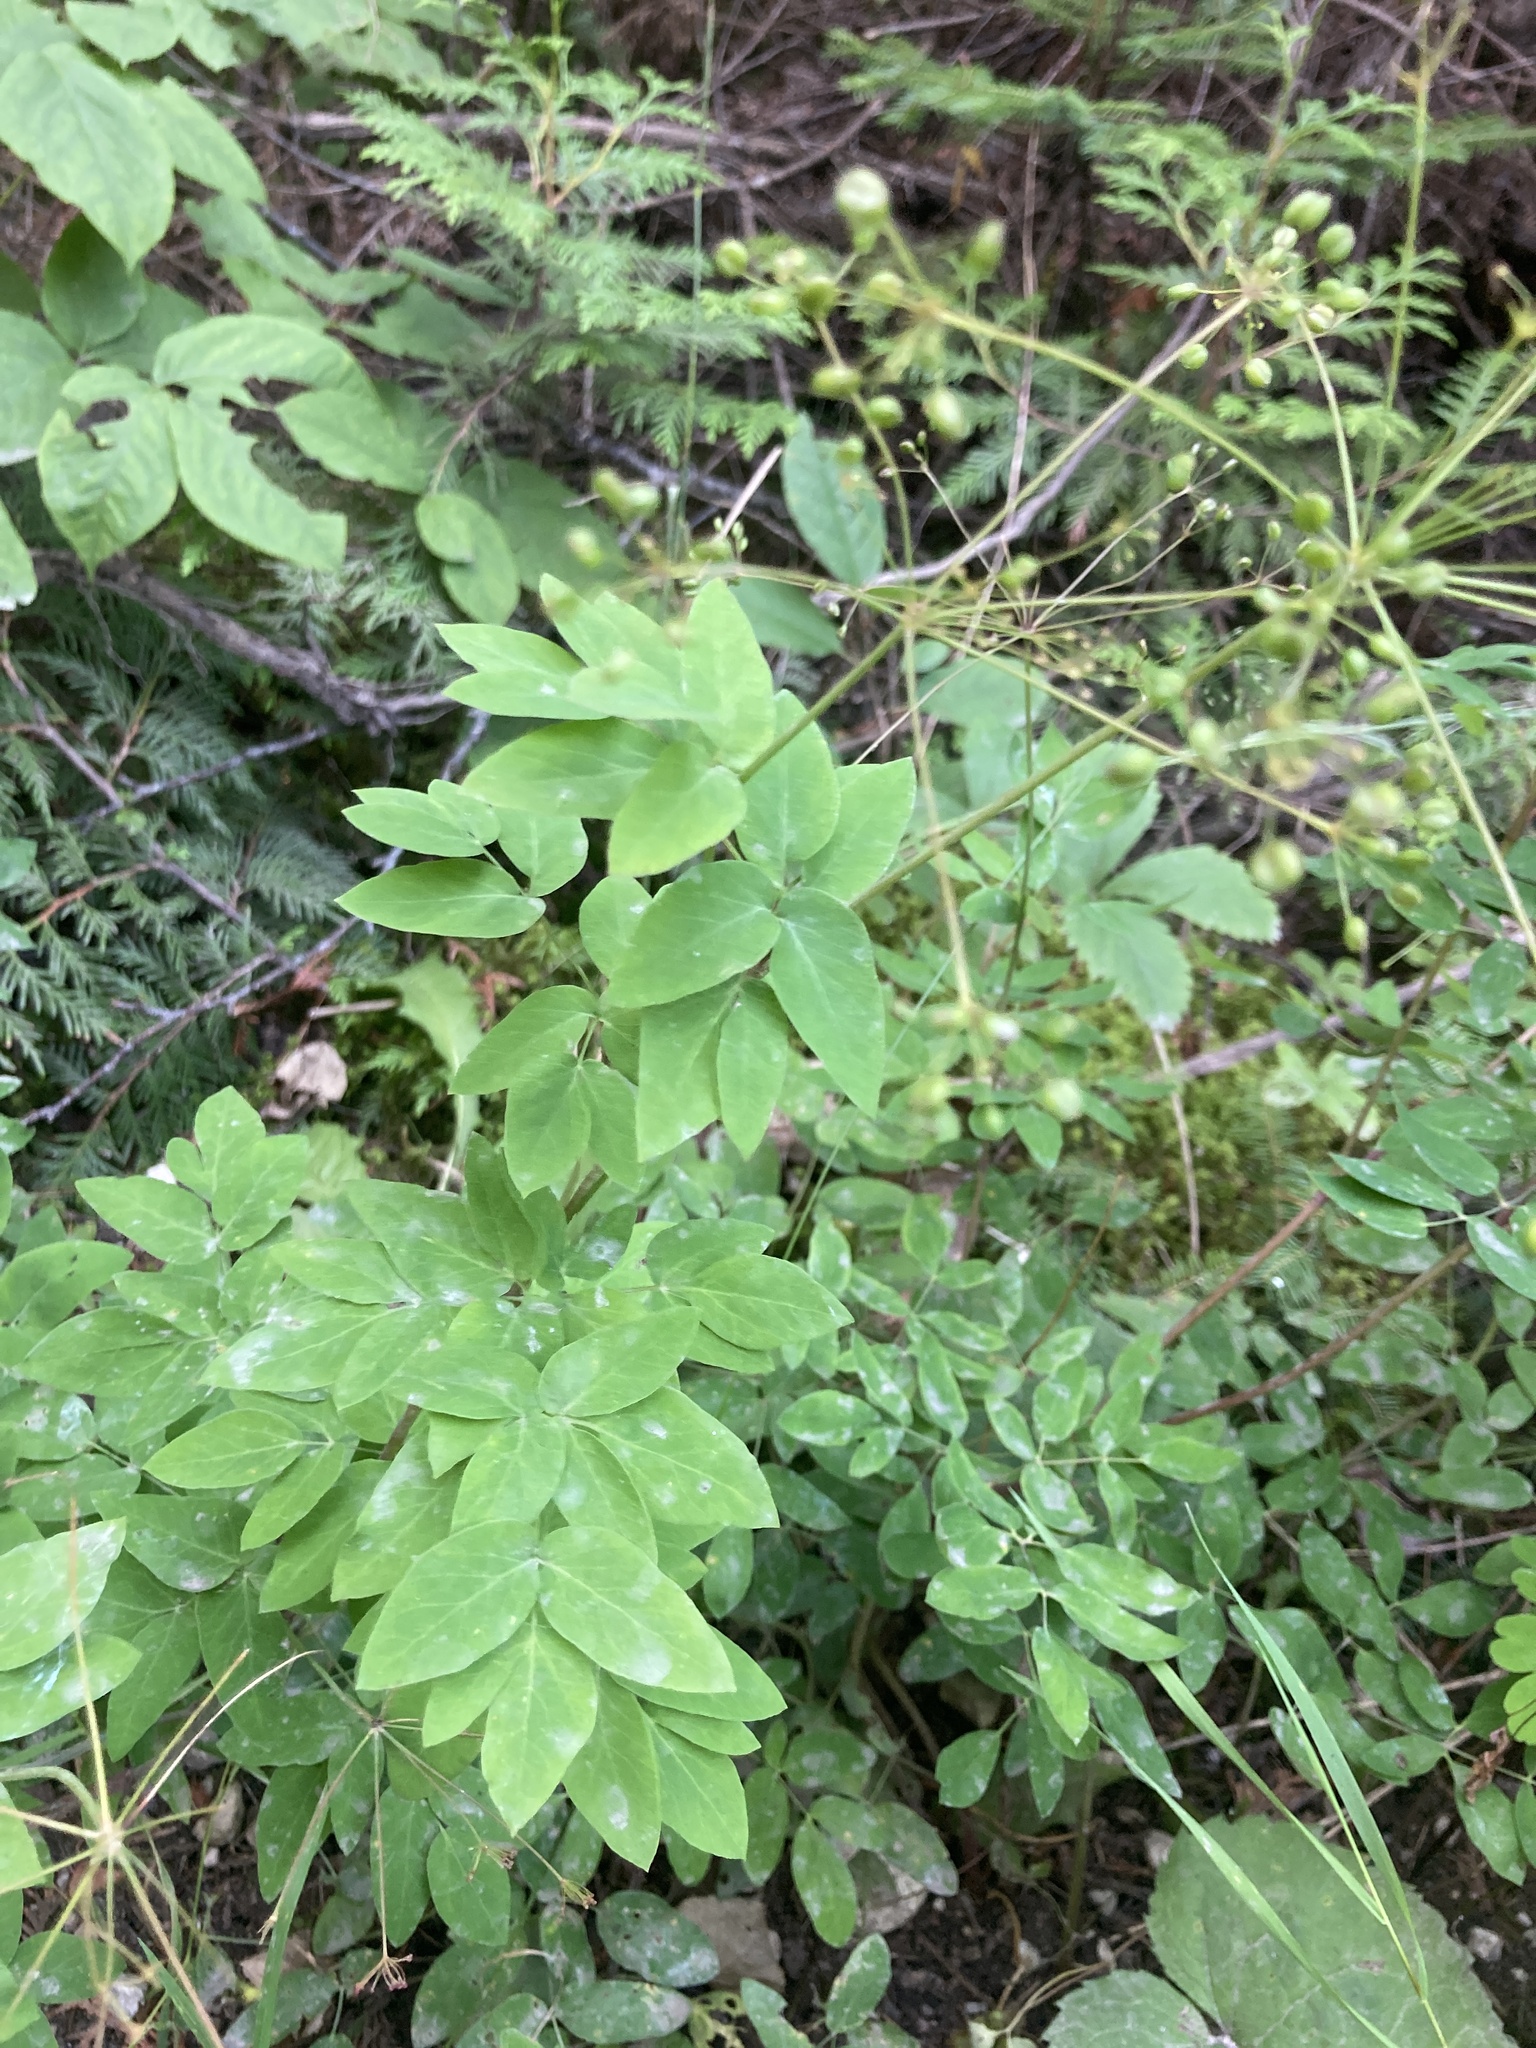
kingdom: Plantae
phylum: Tracheophyta
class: Magnoliopsida
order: Apiales
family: Apiaceae
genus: Taenidia
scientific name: Taenidia integerrima
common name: Golden alexander
